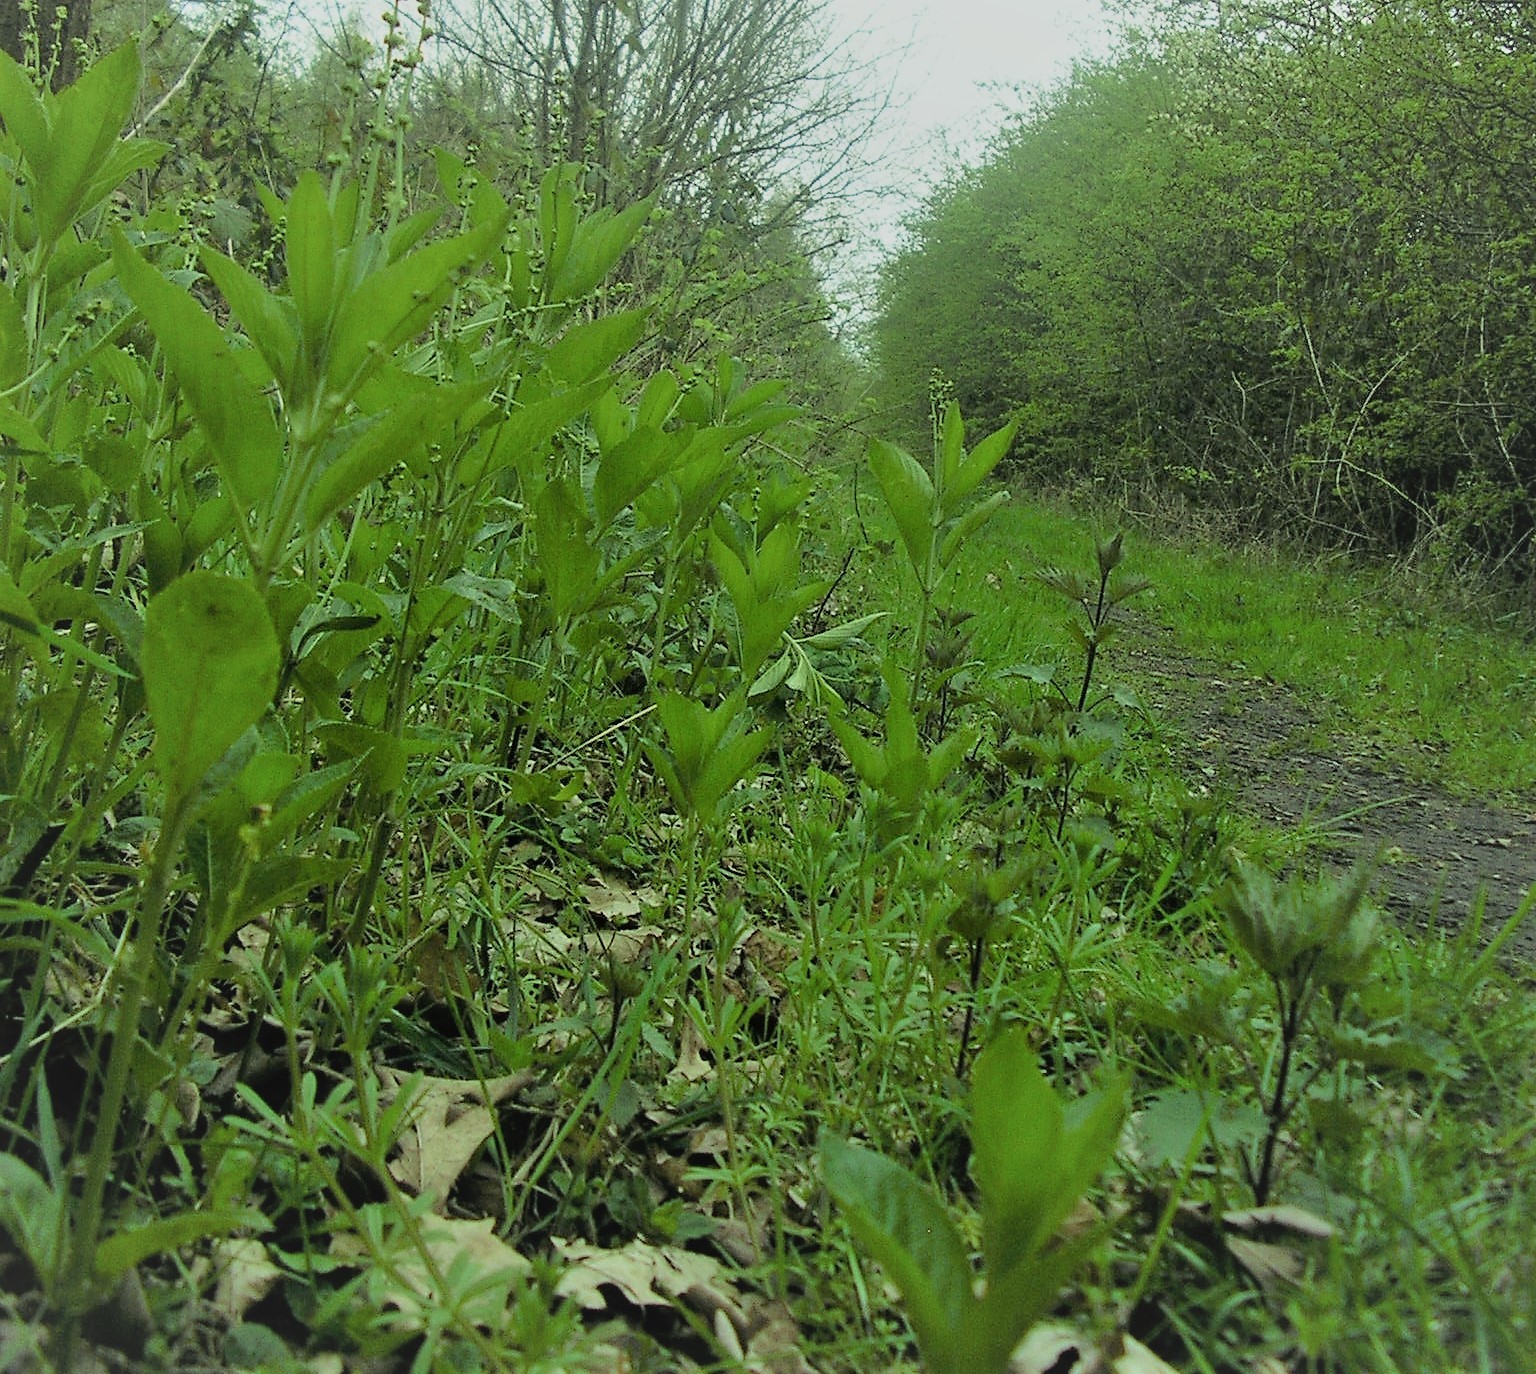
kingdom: Plantae
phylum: Tracheophyta
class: Magnoliopsida
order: Malpighiales
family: Euphorbiaceae
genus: Mercurialis
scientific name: Mercurialis perennis
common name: Dog mercury
